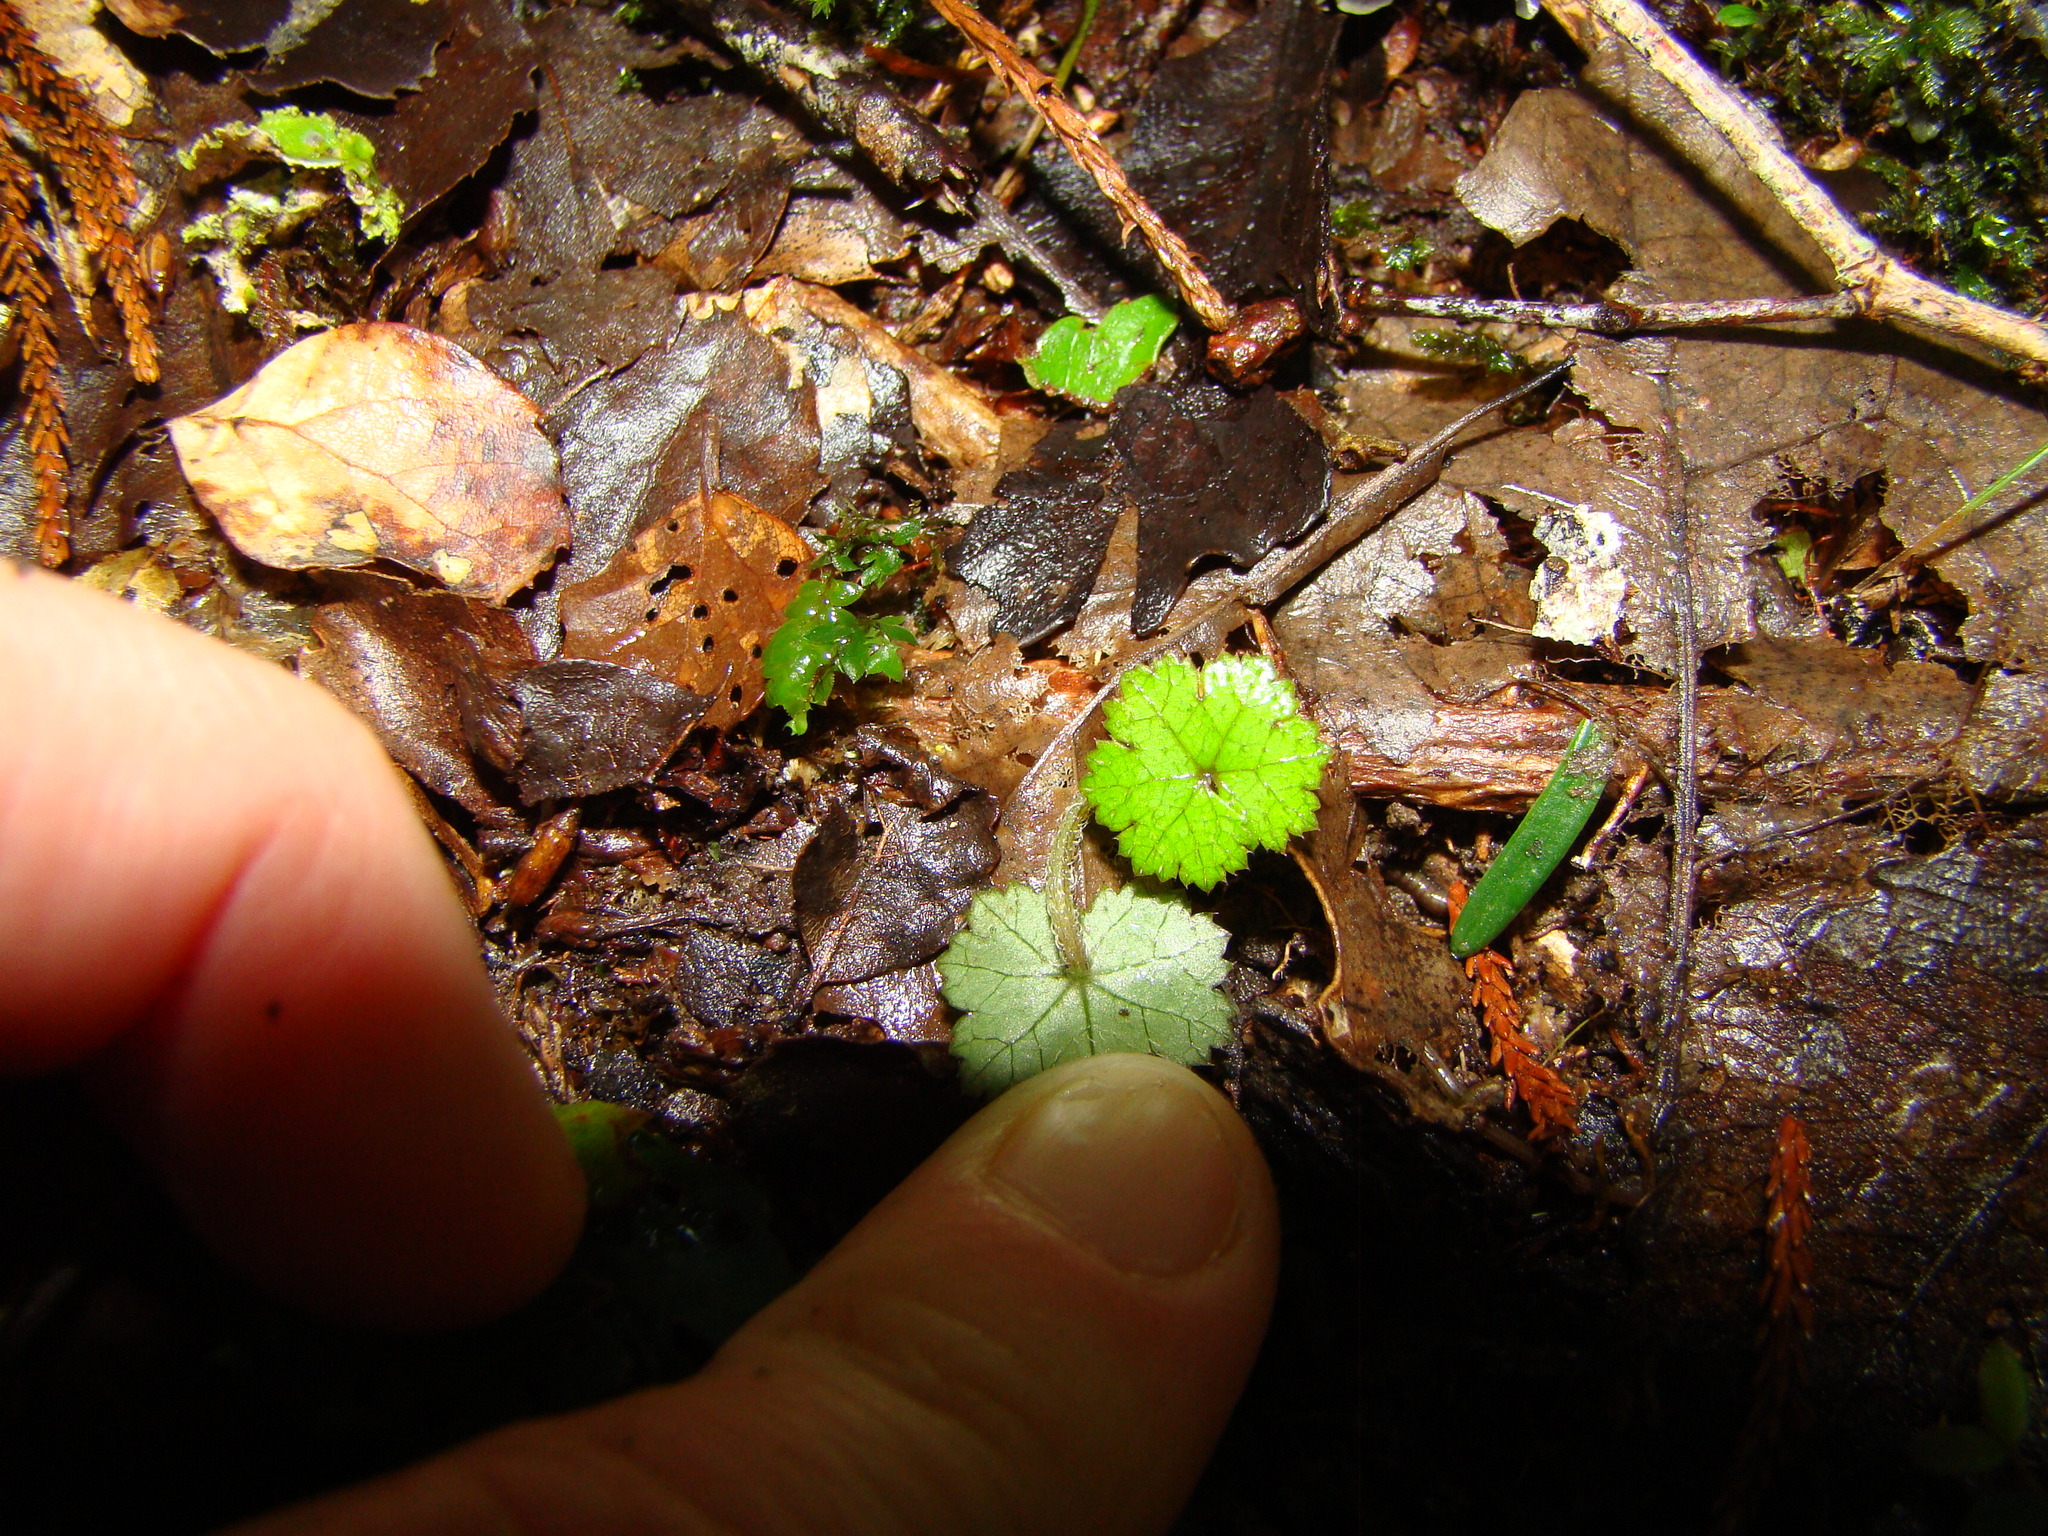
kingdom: Plantae
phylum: Tracheophyta
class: Magnoliopsida
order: Apiales
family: Araliaceae
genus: Hydrocotyle
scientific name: Hydrocotyle microphylla
